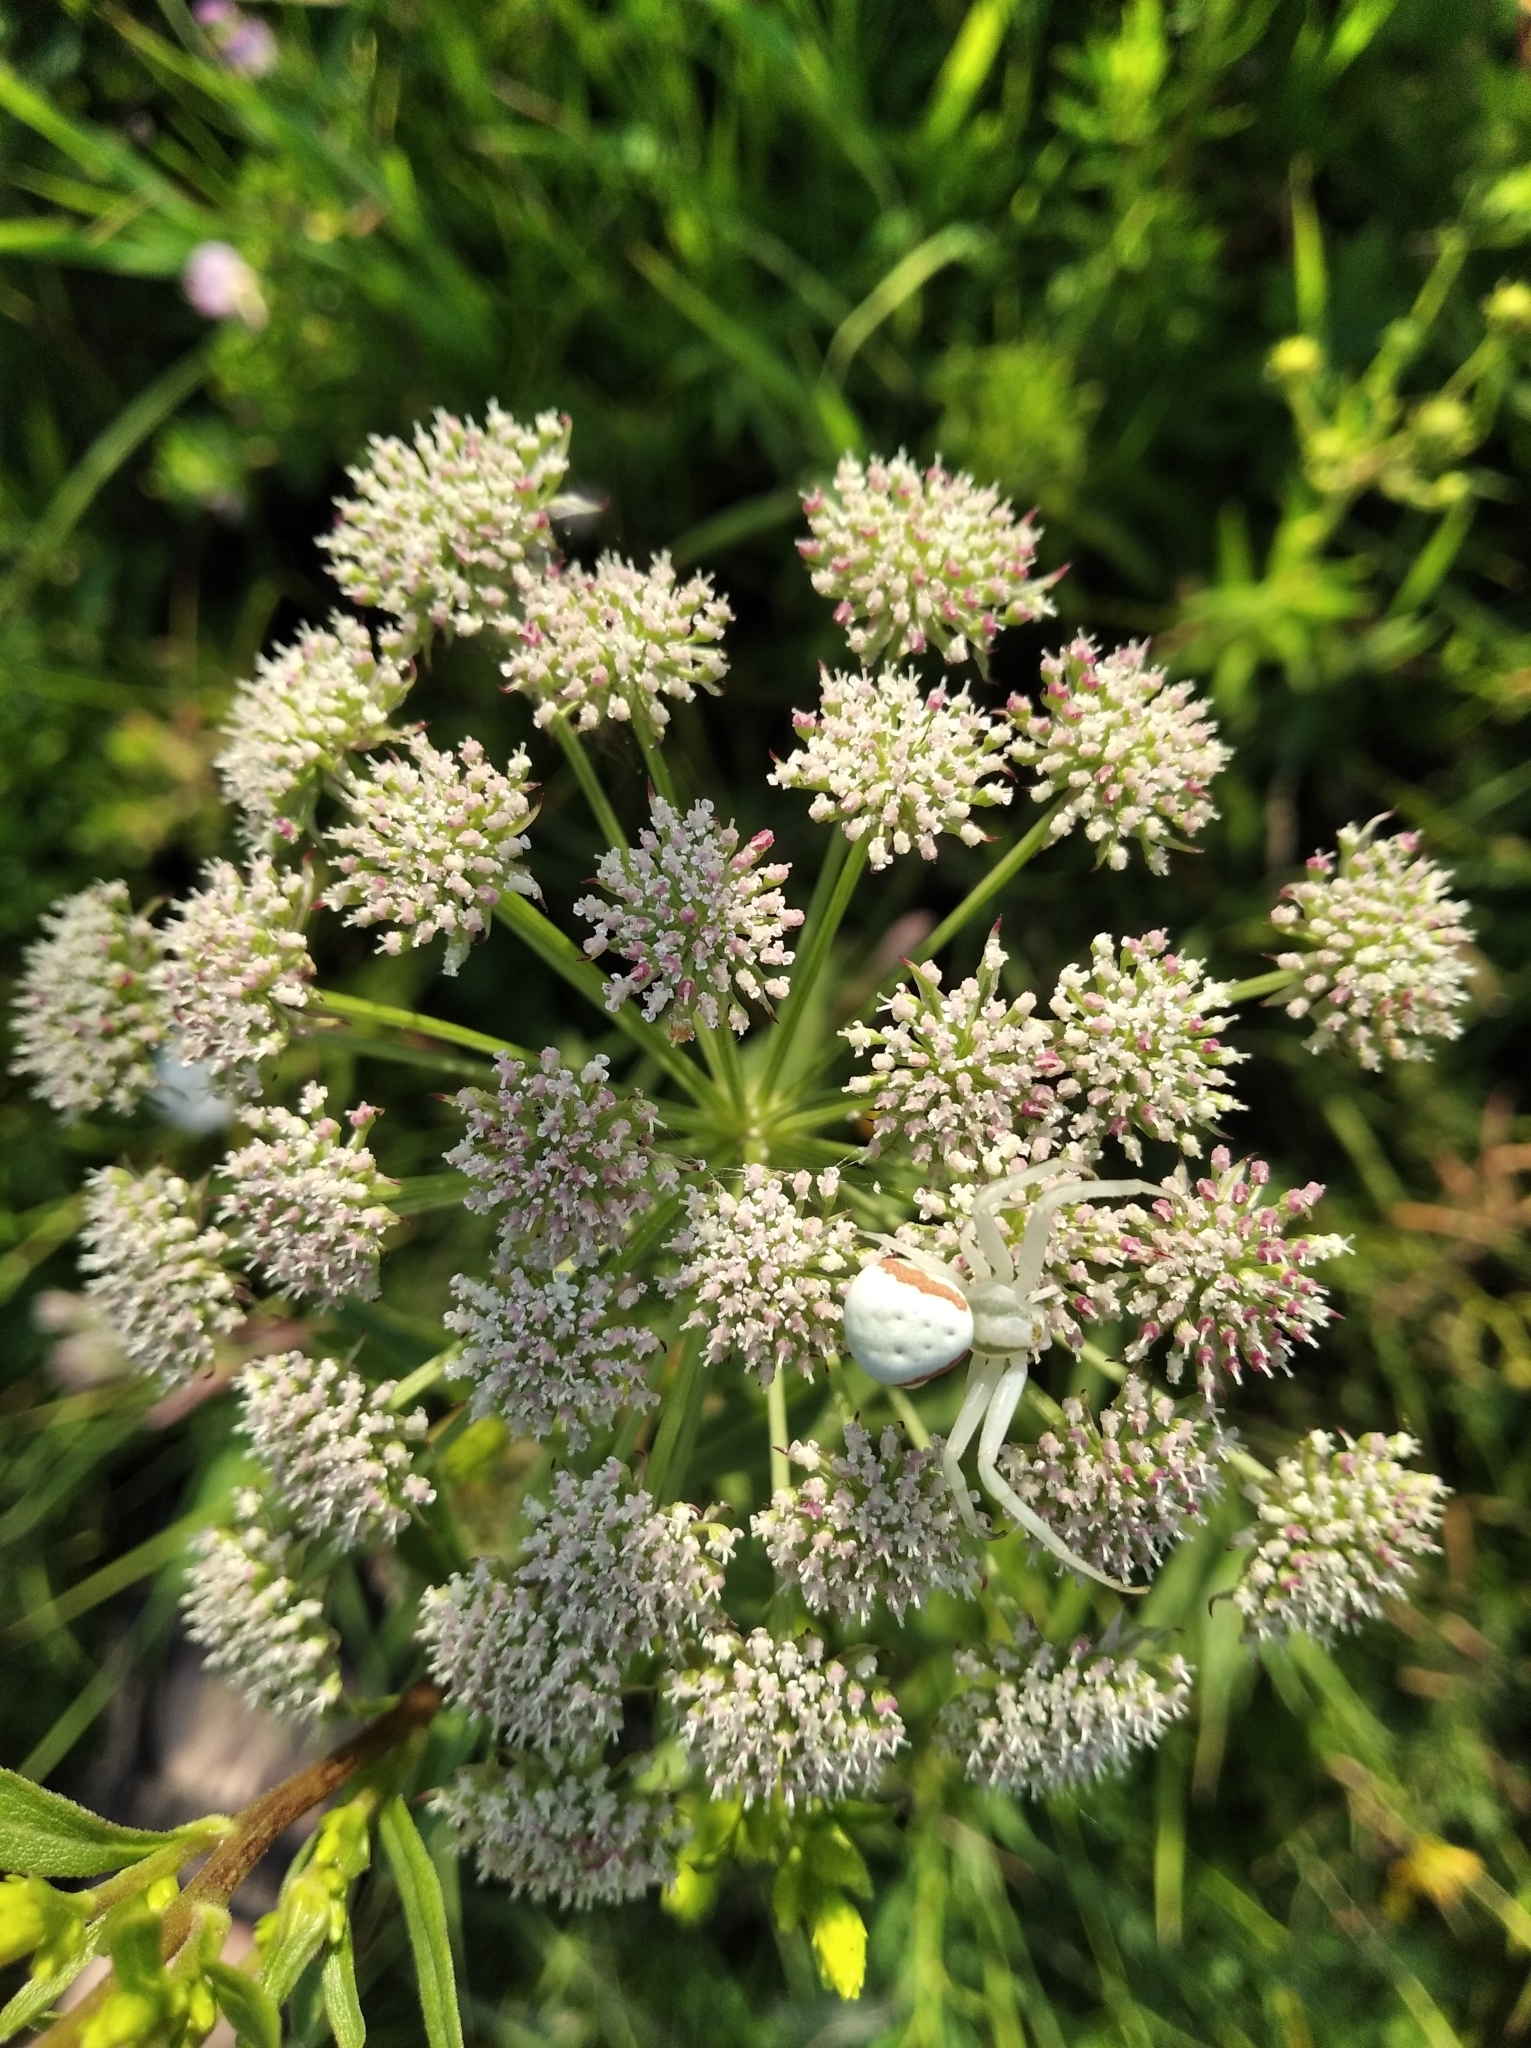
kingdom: Animalia
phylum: Arthropoda
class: Arachnida
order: Araneae
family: Thomisidae
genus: Misumena
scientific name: Misumena vatia
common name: Goldenrod crab spider
